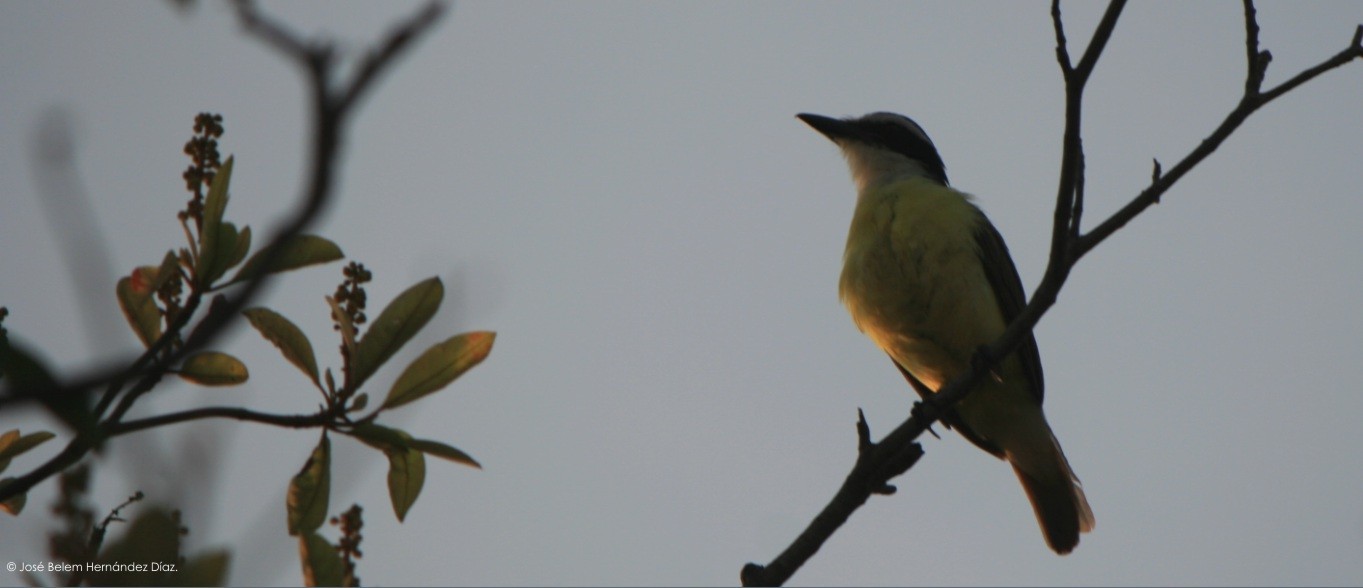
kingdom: Animalia
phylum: Chordata
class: Aves
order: Passeriformes
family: Tyrannidae
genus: Pitangus
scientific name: Pitangus sulphuratus
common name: Great kiskadee
